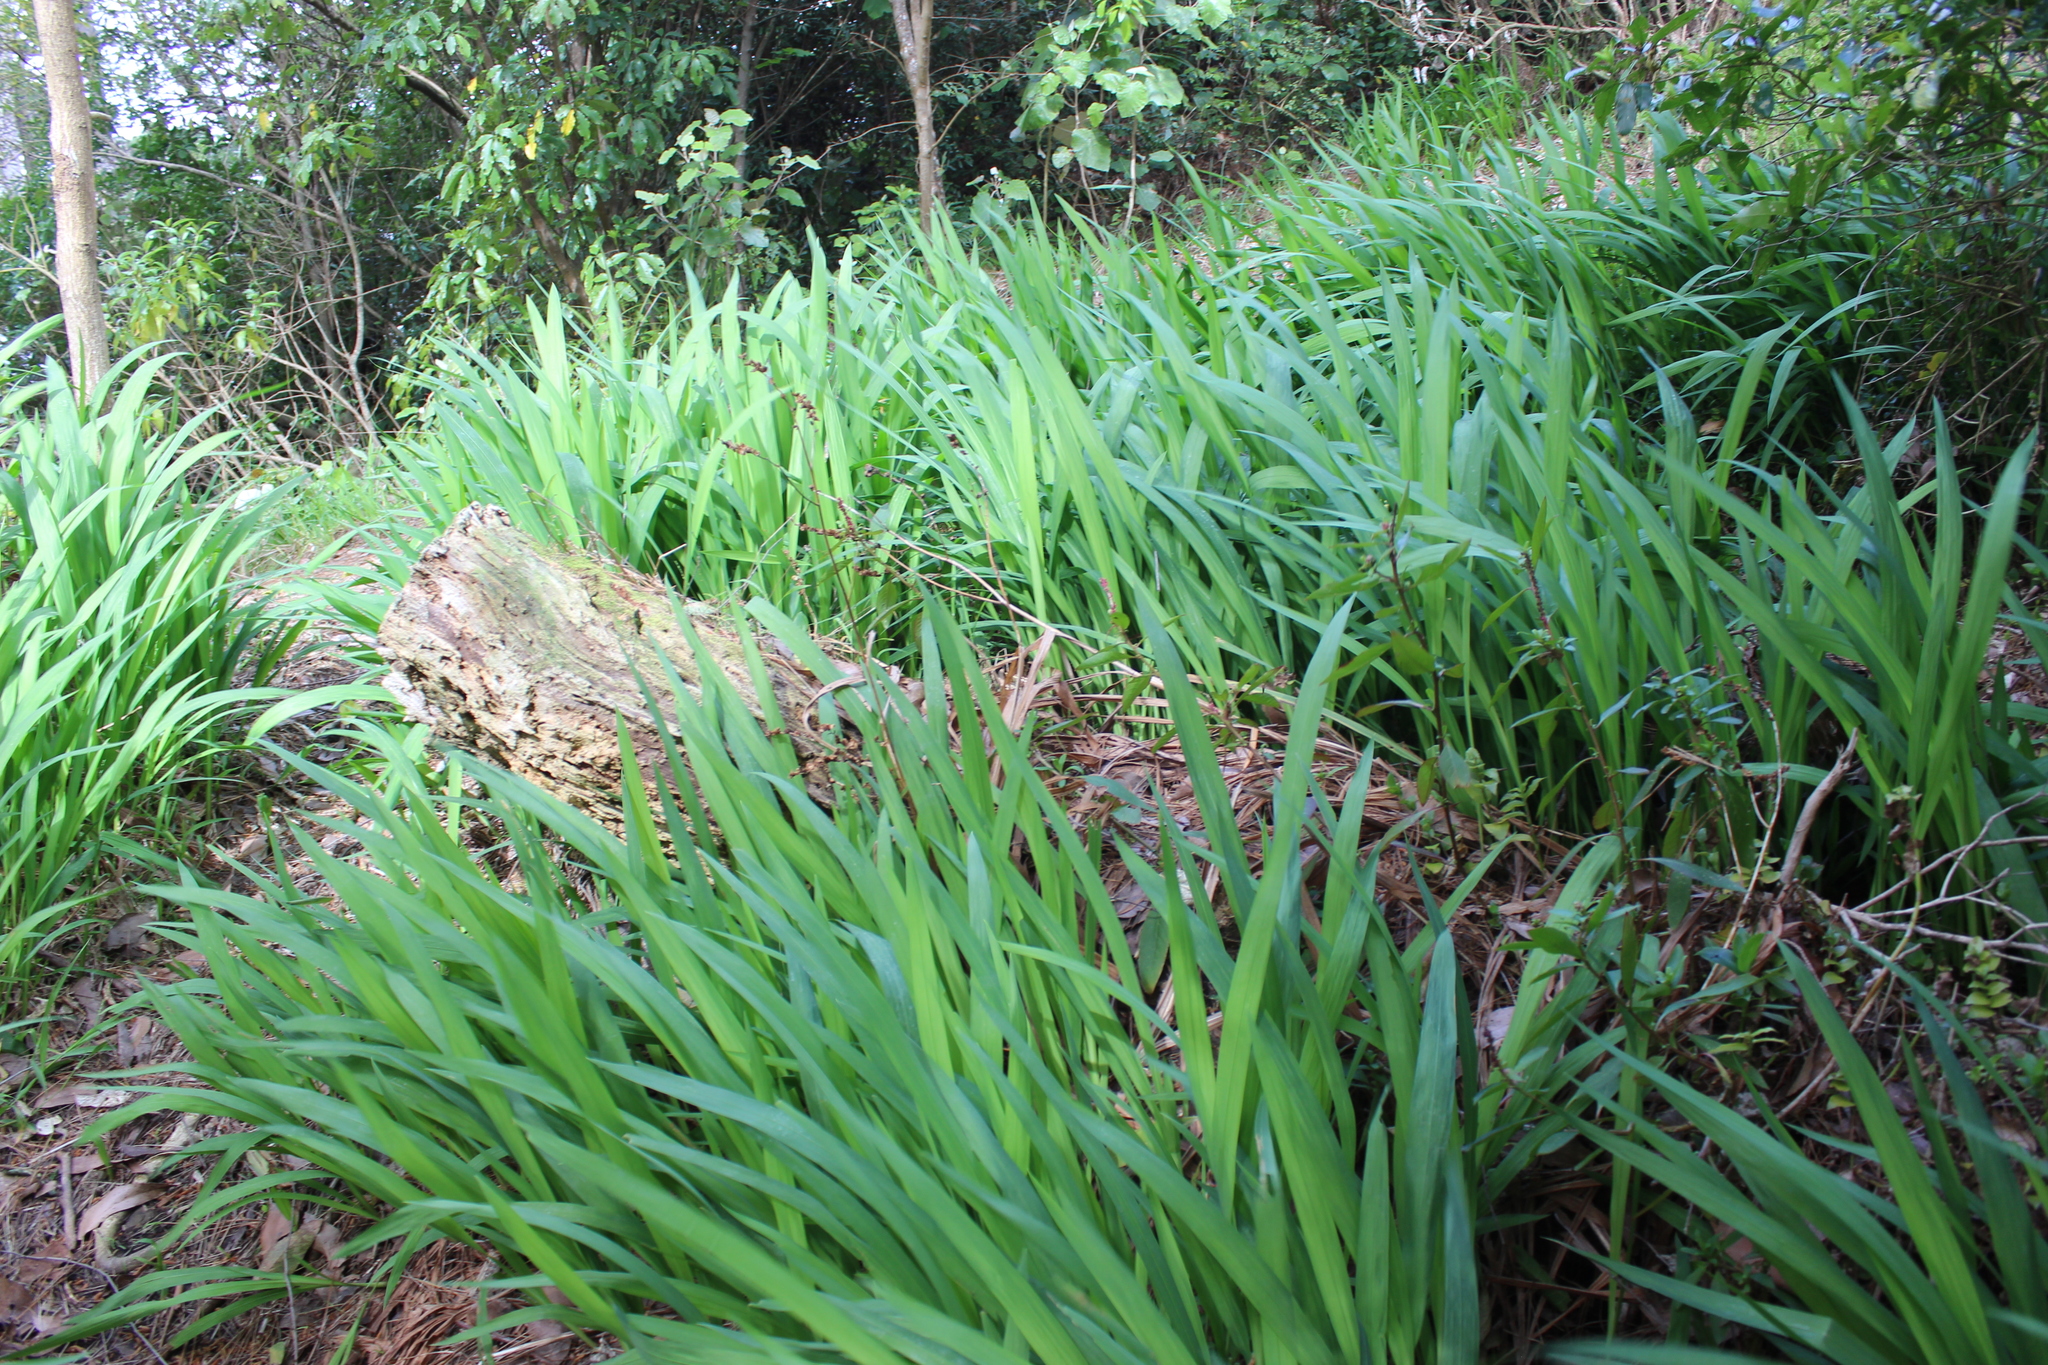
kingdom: Plantae
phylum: Tracheophyta
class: Liliopsida
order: Asparagales
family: Iridaceae
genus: Crocosmia
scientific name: Crocosmia crocosmiiflora
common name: Montbretia
